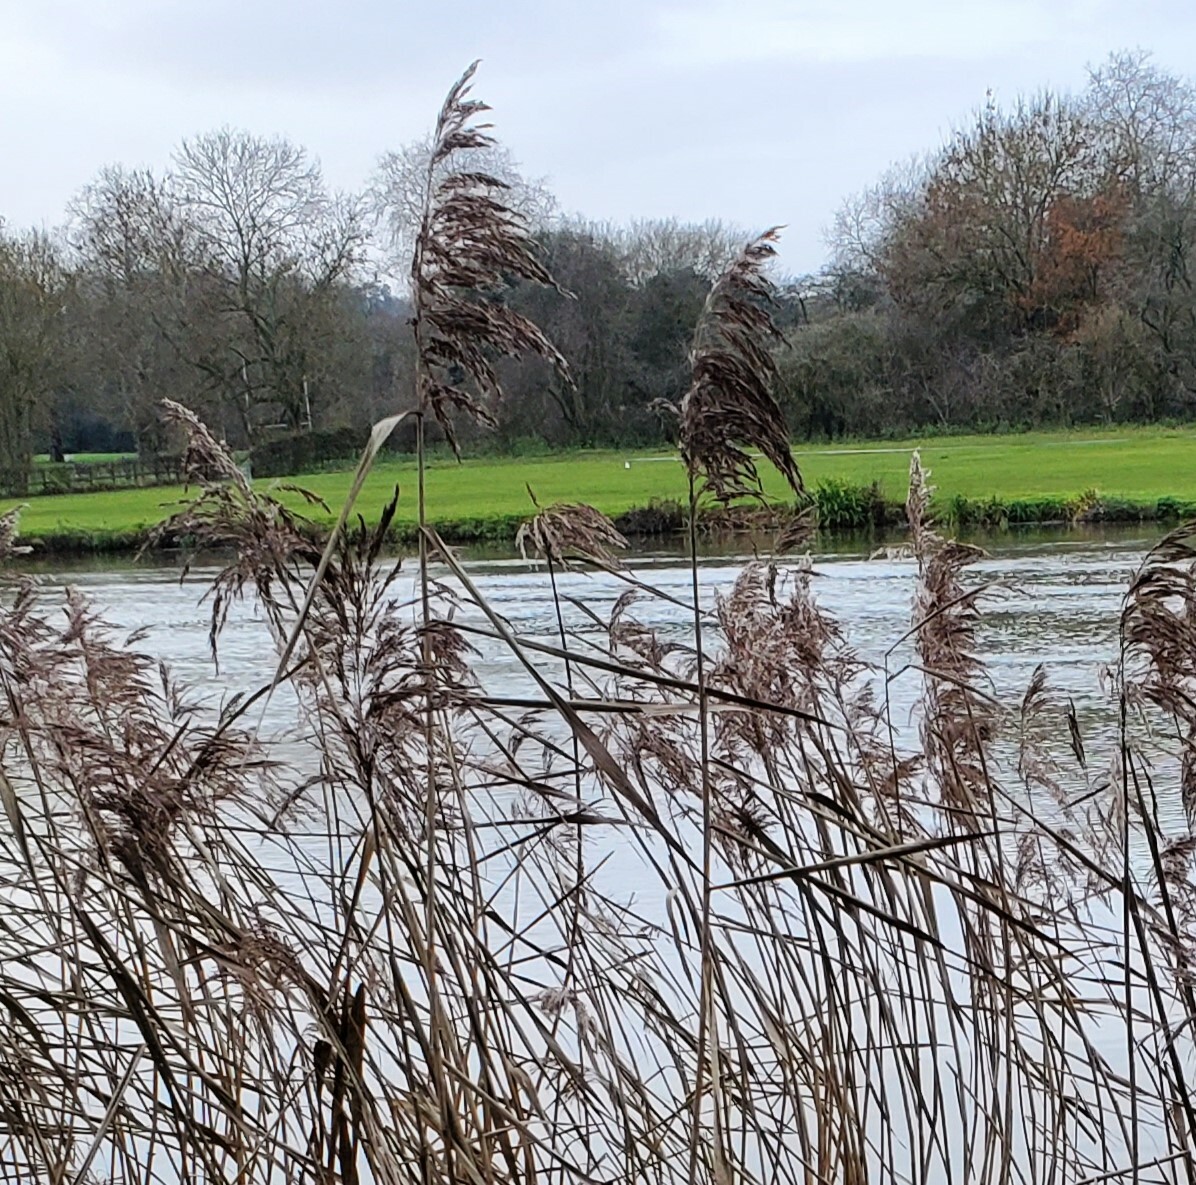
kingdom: Plantae
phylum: Tracheophyta
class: Liliopsida
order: Poales
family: Poaceae
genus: Phragmites
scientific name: Phragmites australis
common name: Common reed
